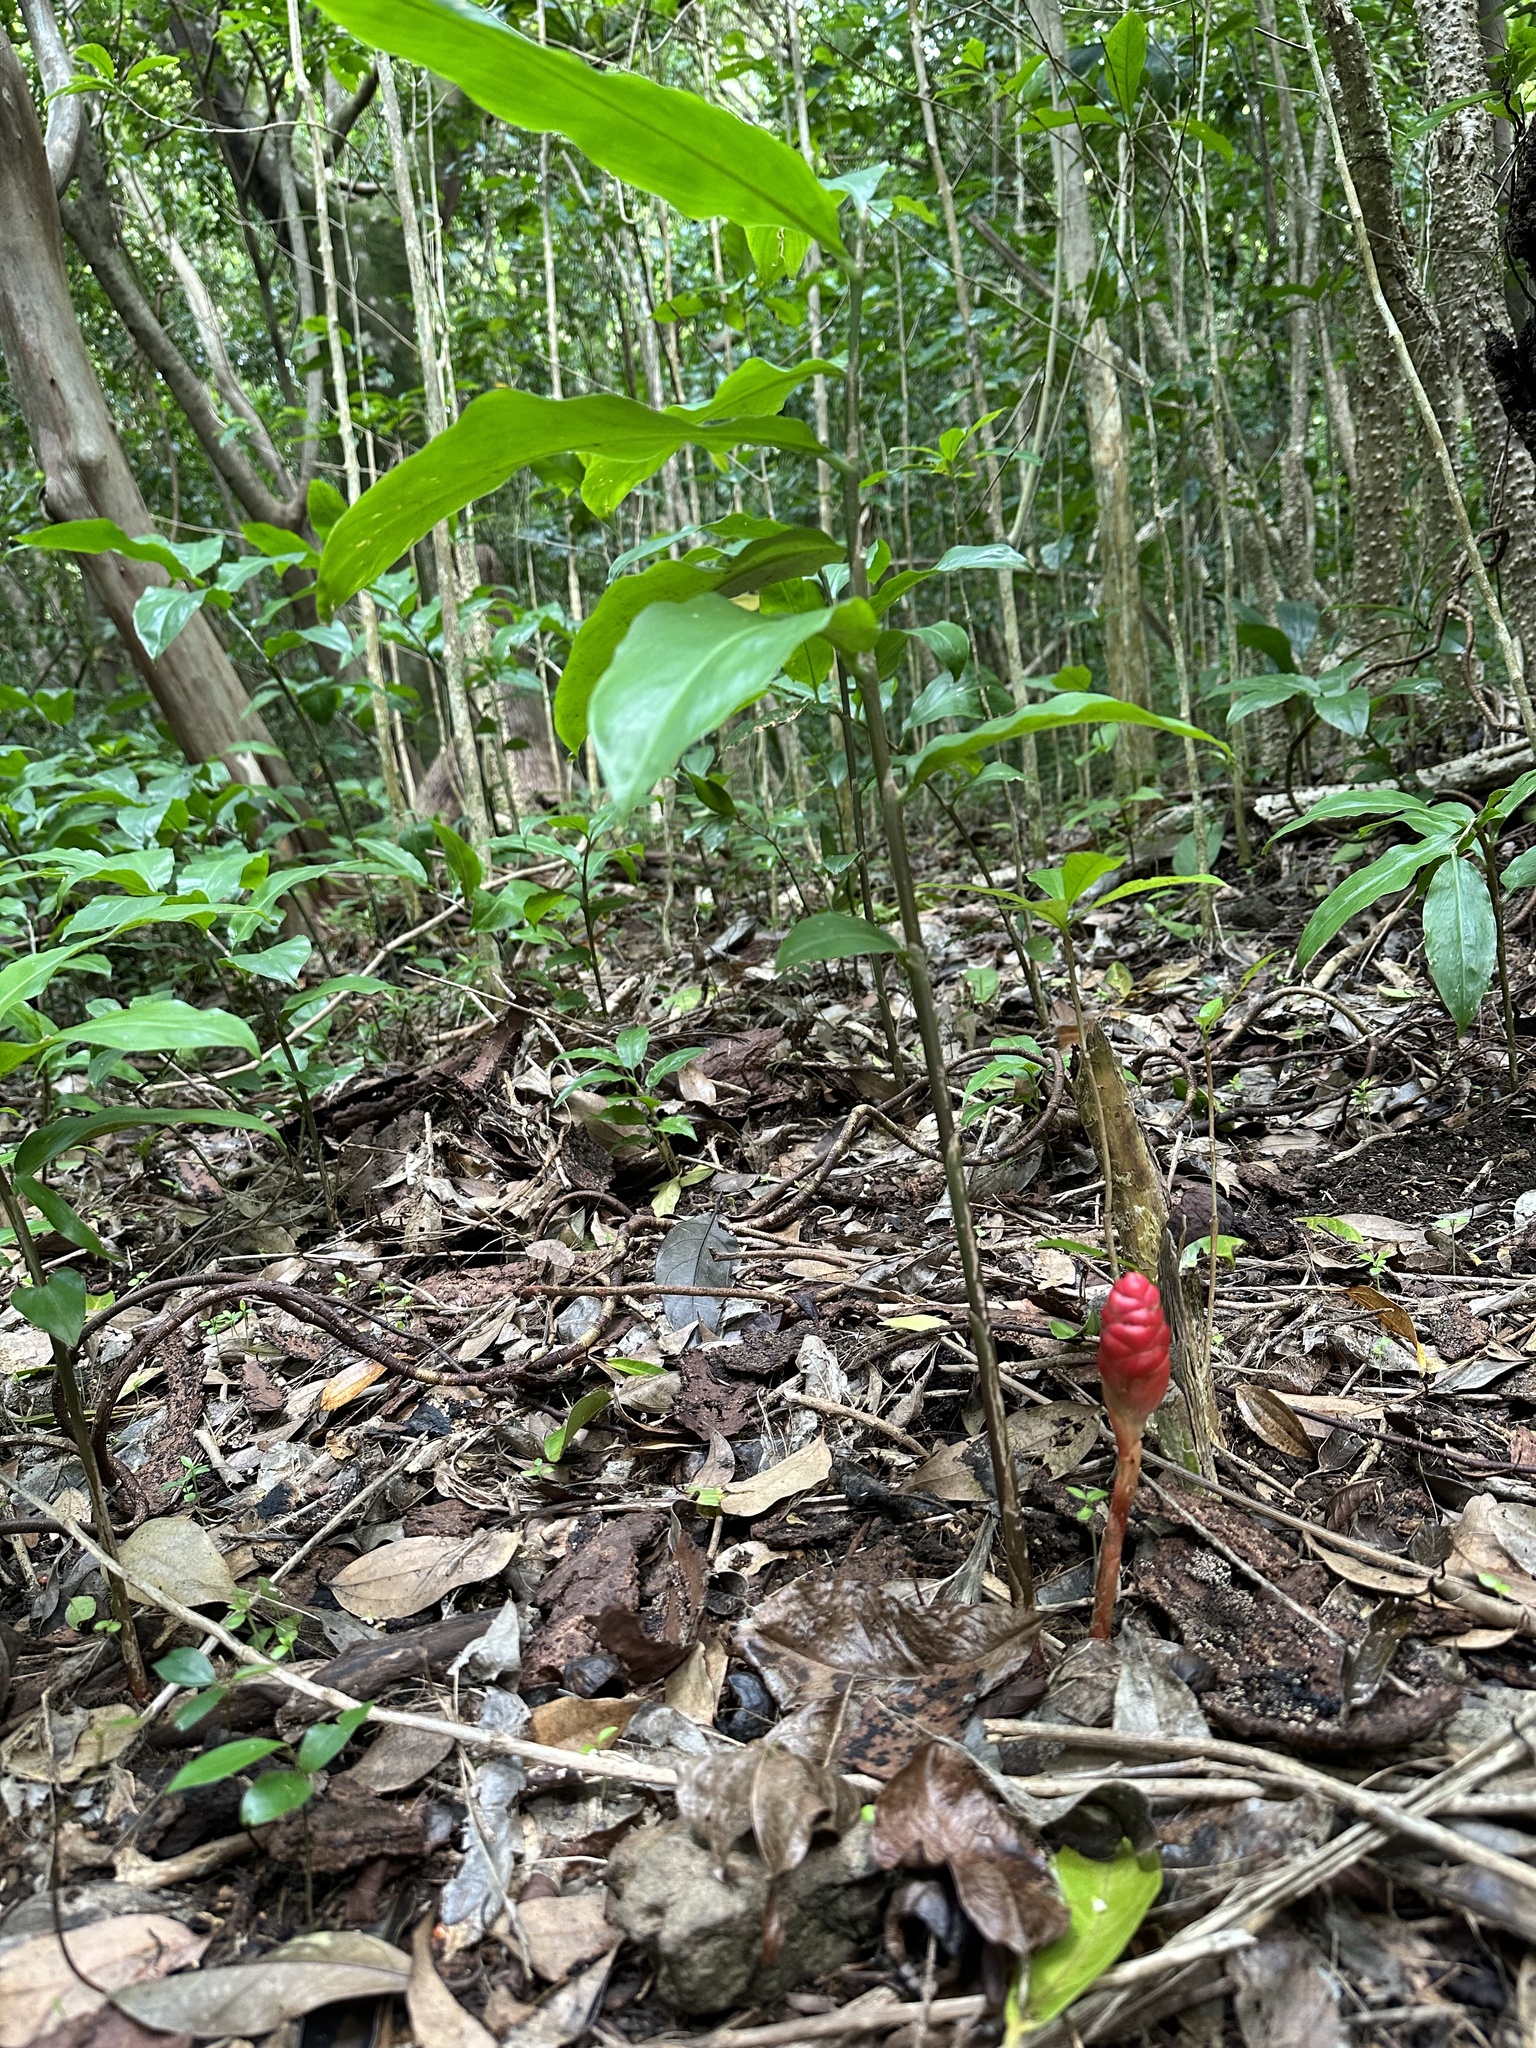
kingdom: Plantae
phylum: Tracheophyta
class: Liliopsida
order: Zingiberales
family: Zingiberaceae
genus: Zingiber
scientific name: Zingiber zerumbet
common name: Bitter ginger
